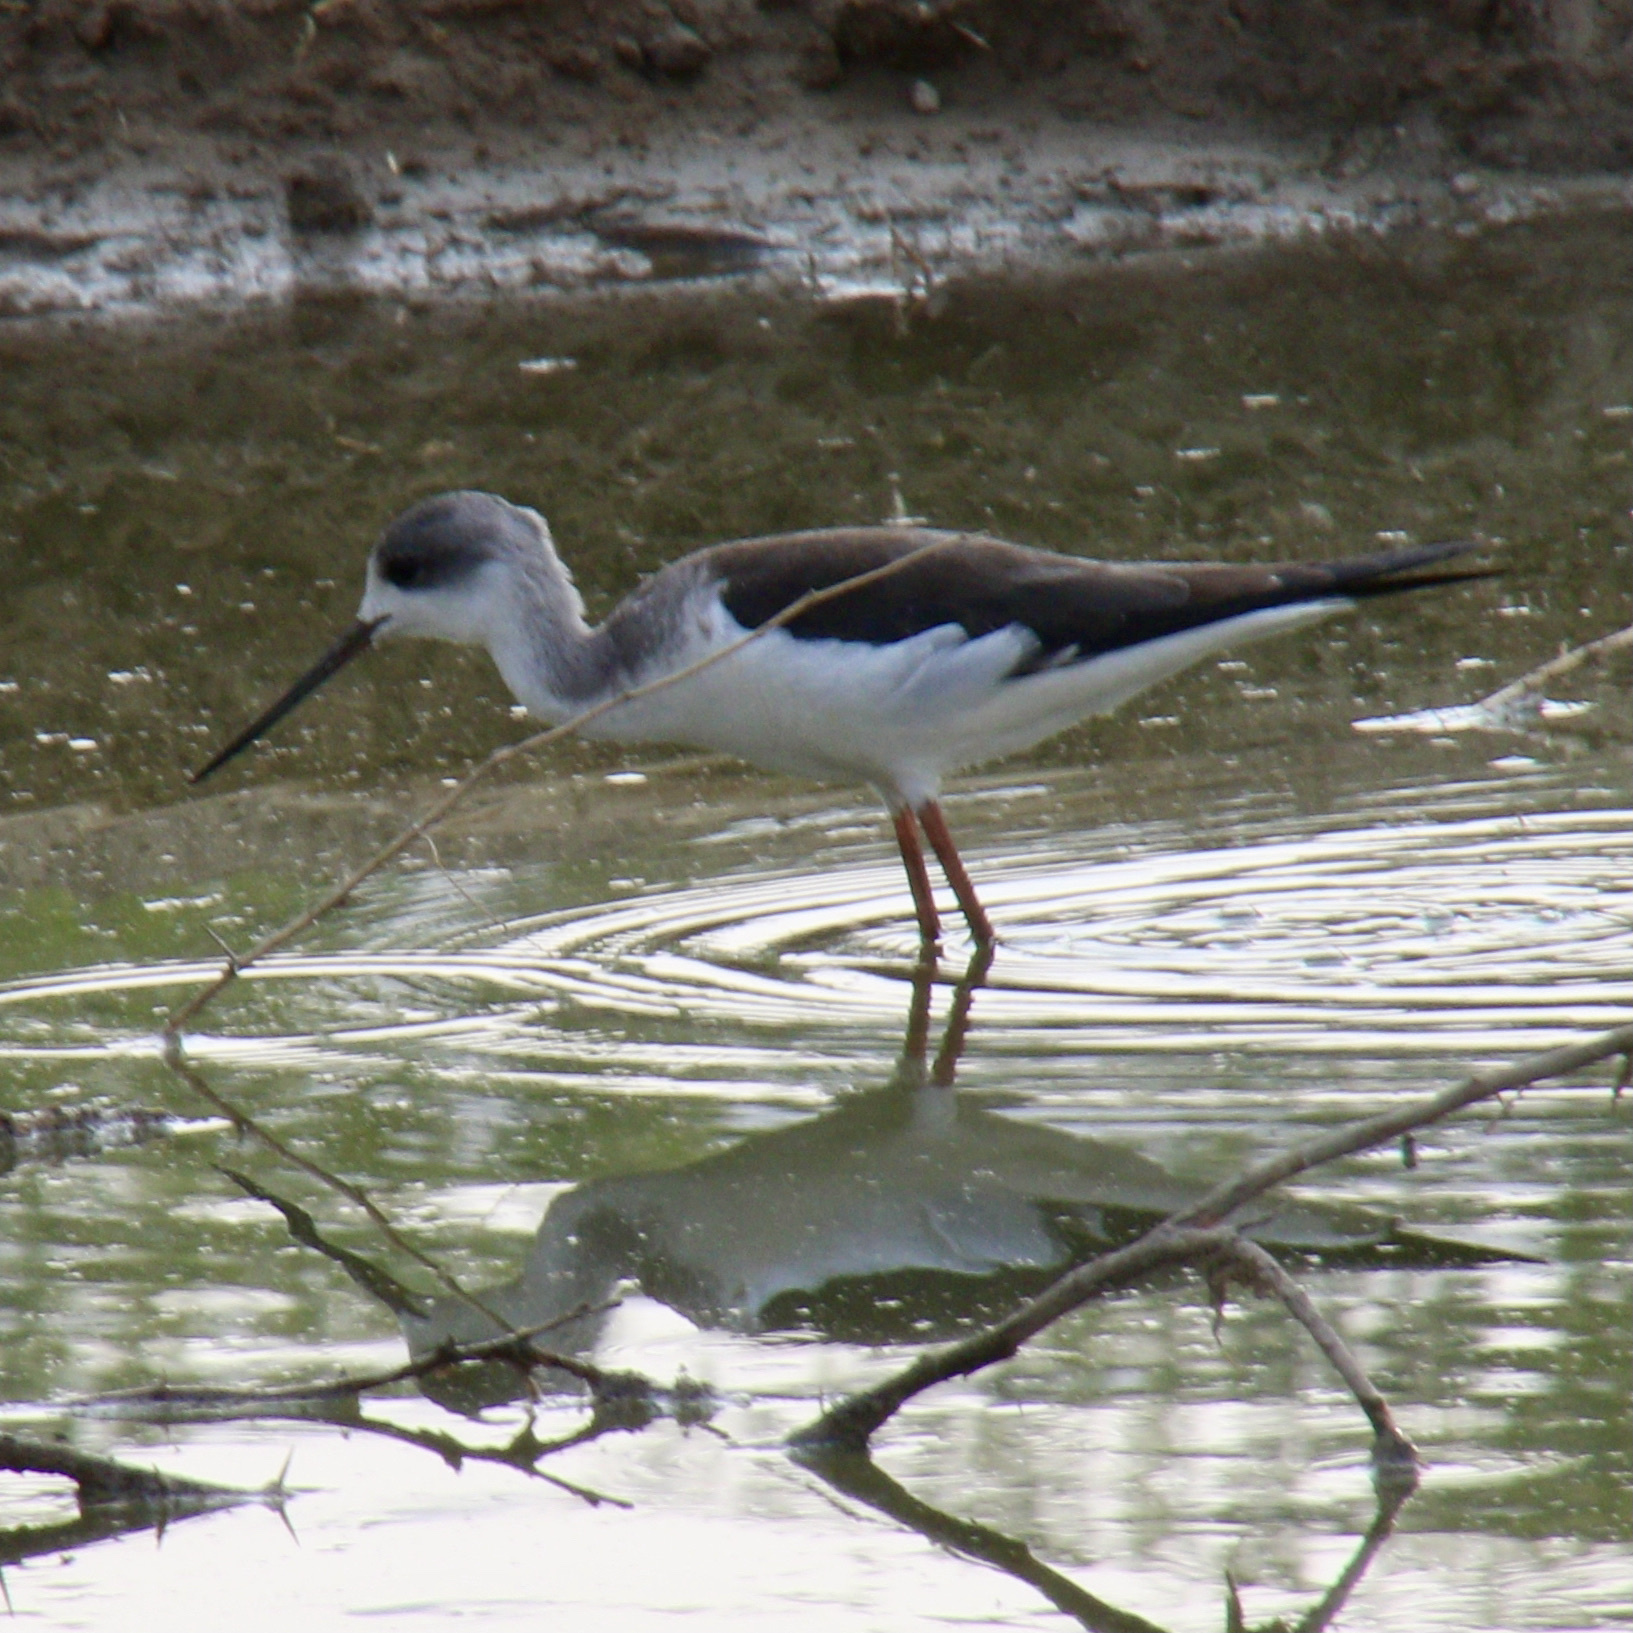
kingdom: Animalia
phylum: Chordata
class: Aves
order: Charadriiformes
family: Recurvirostridae
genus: Himantopus
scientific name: Himantopus himantopus
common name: Black-winged stilt
